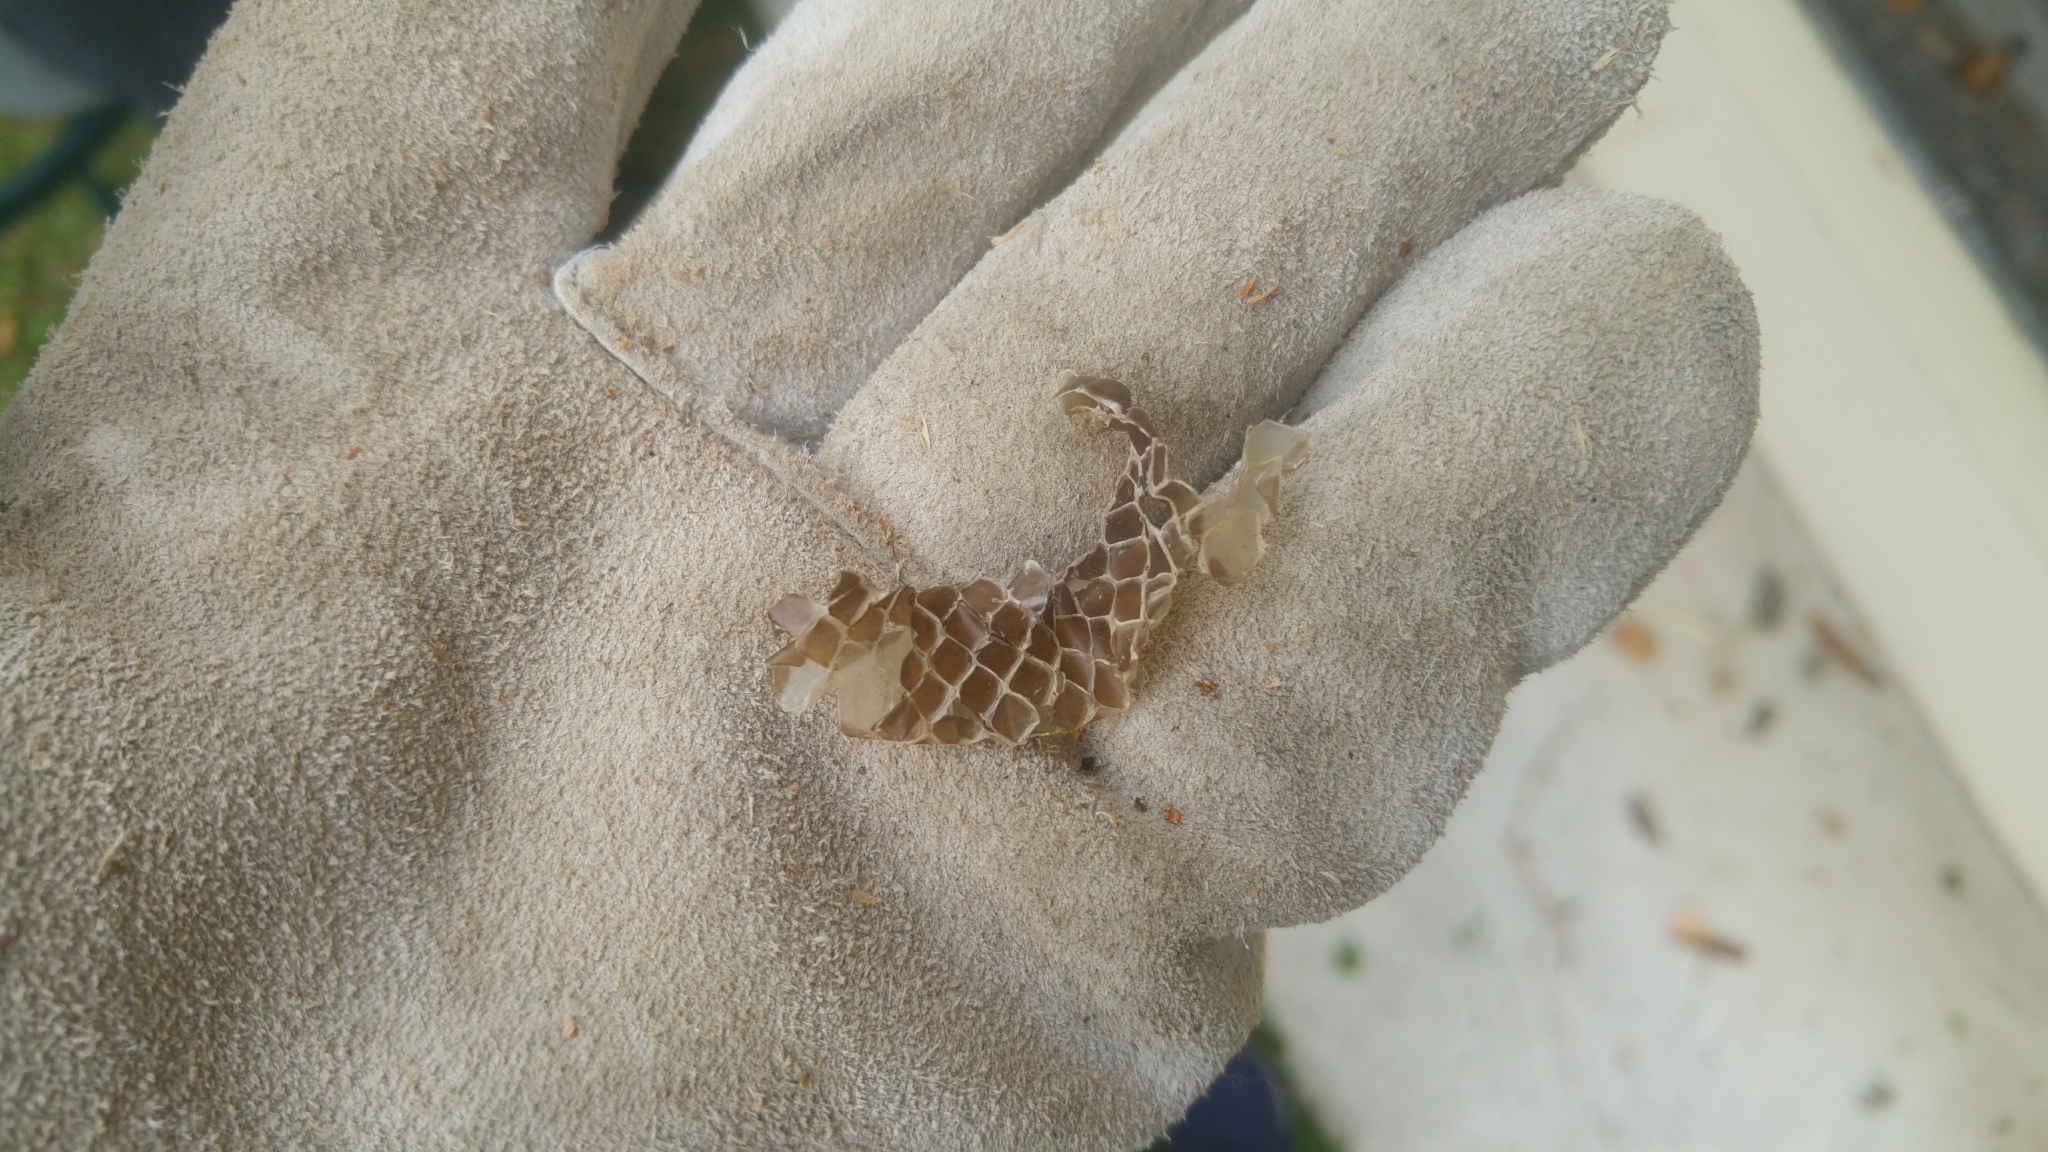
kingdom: Animalia
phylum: Chordata
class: Squamata
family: Colubridae
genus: Zamenis
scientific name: Zamenis longissimus
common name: Aesculapean snake
